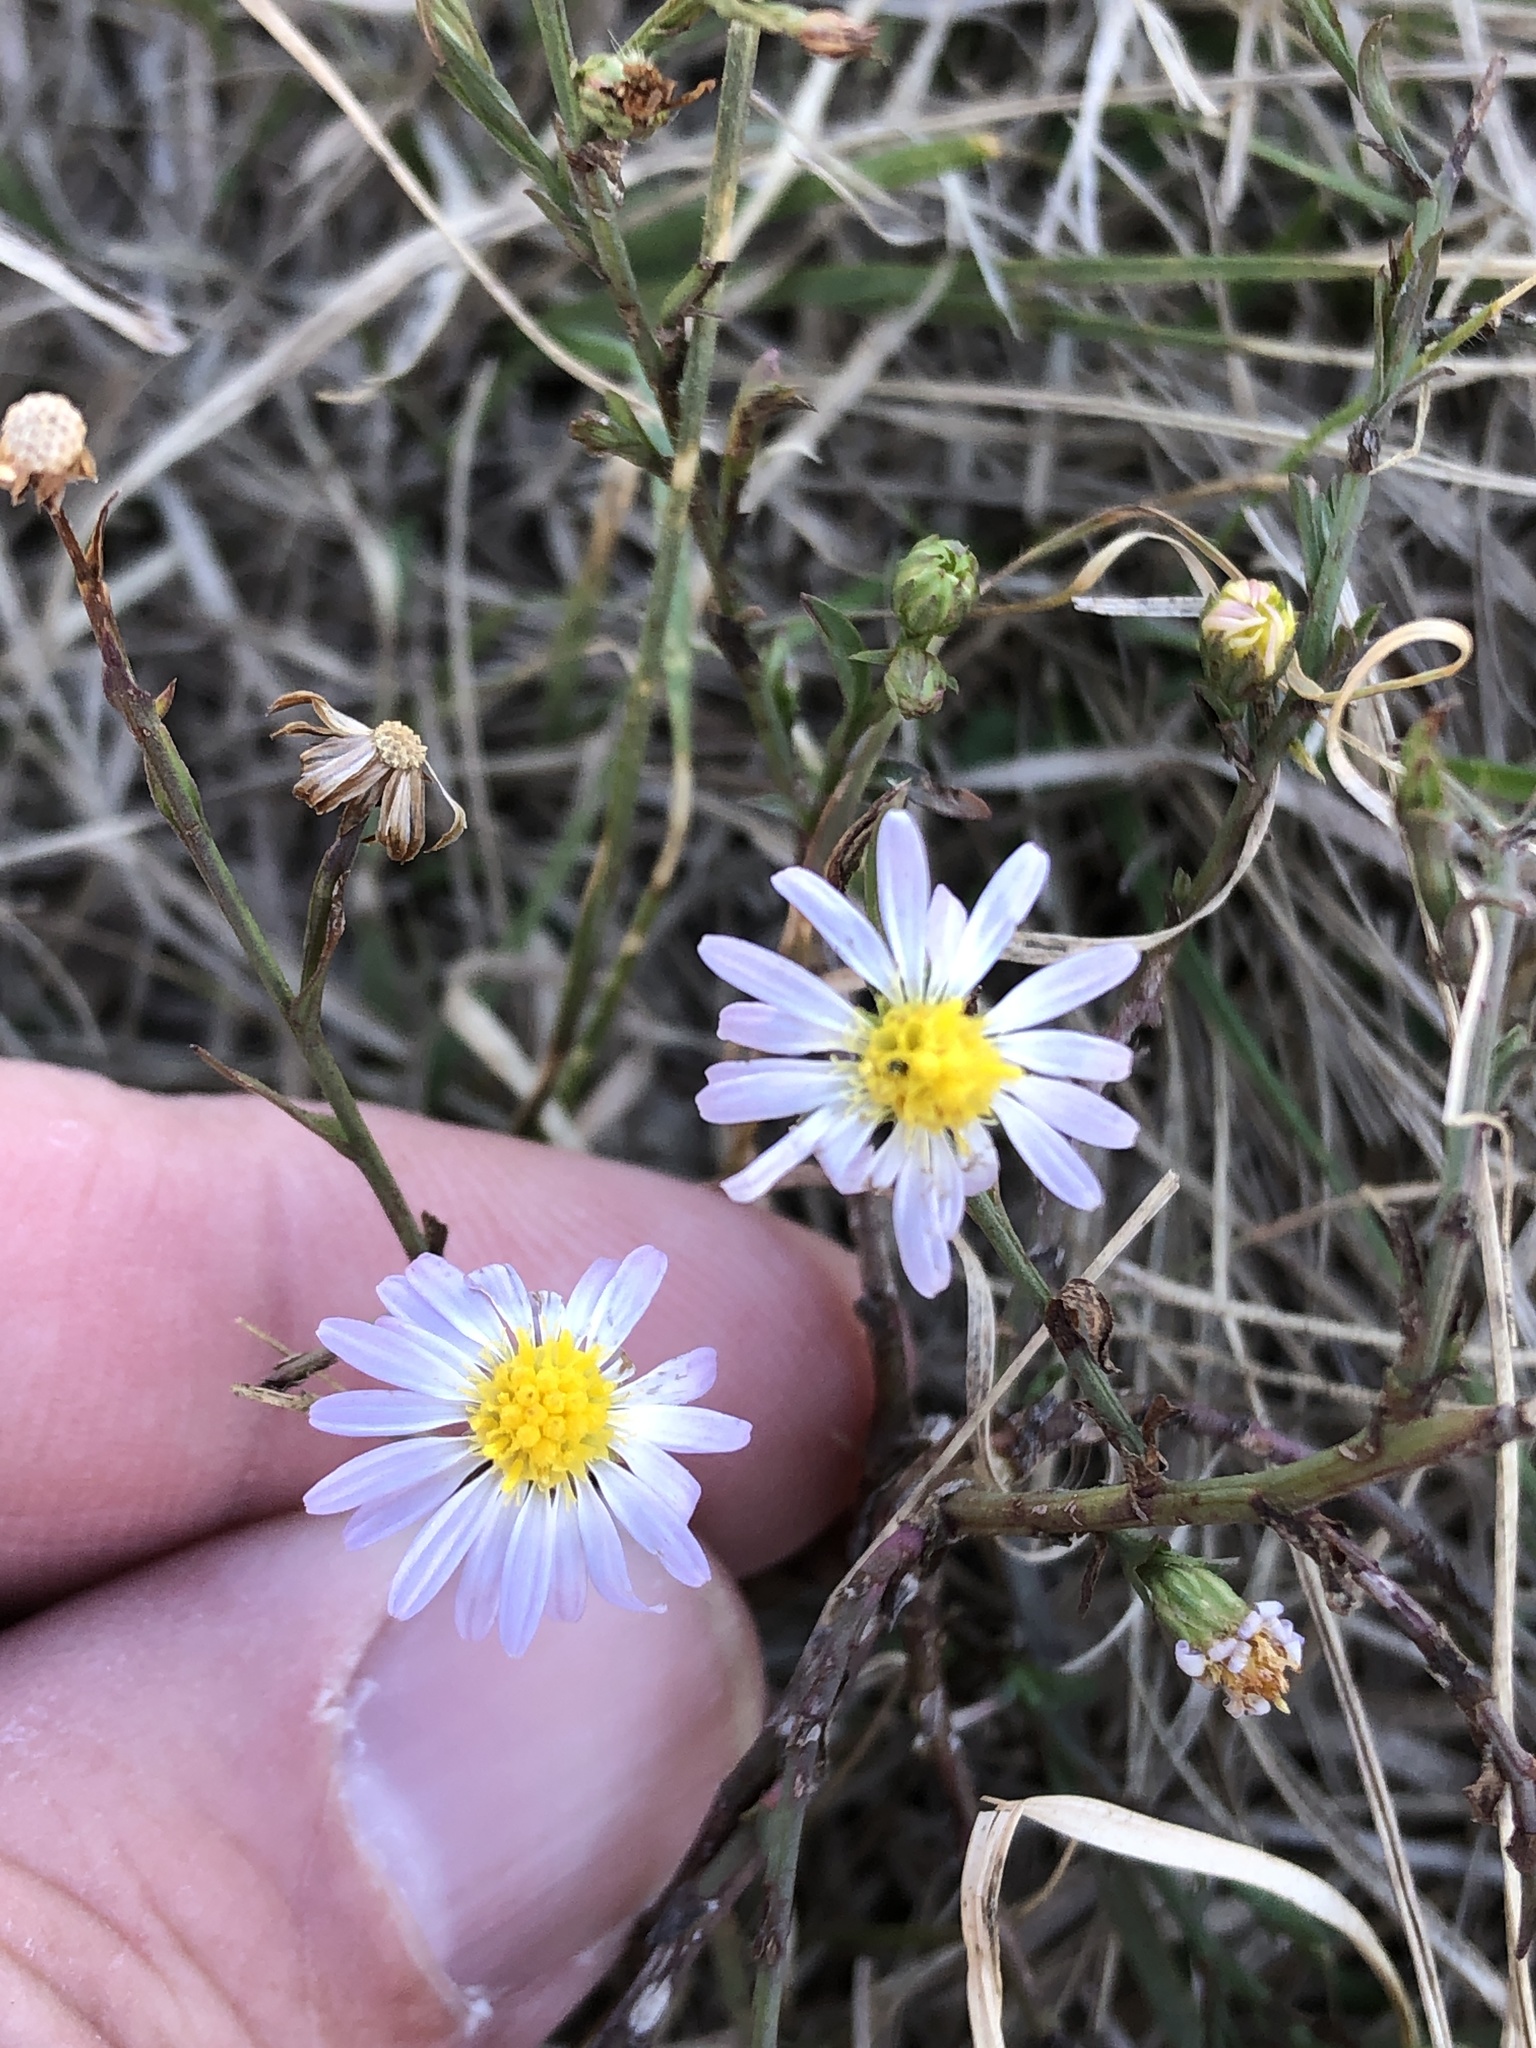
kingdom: Plantae
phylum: Tracheophyta
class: Magnoliopsida
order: Asterales
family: Asteraceae
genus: Symphyotrichum
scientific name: Symphyotrichum divaricatum
